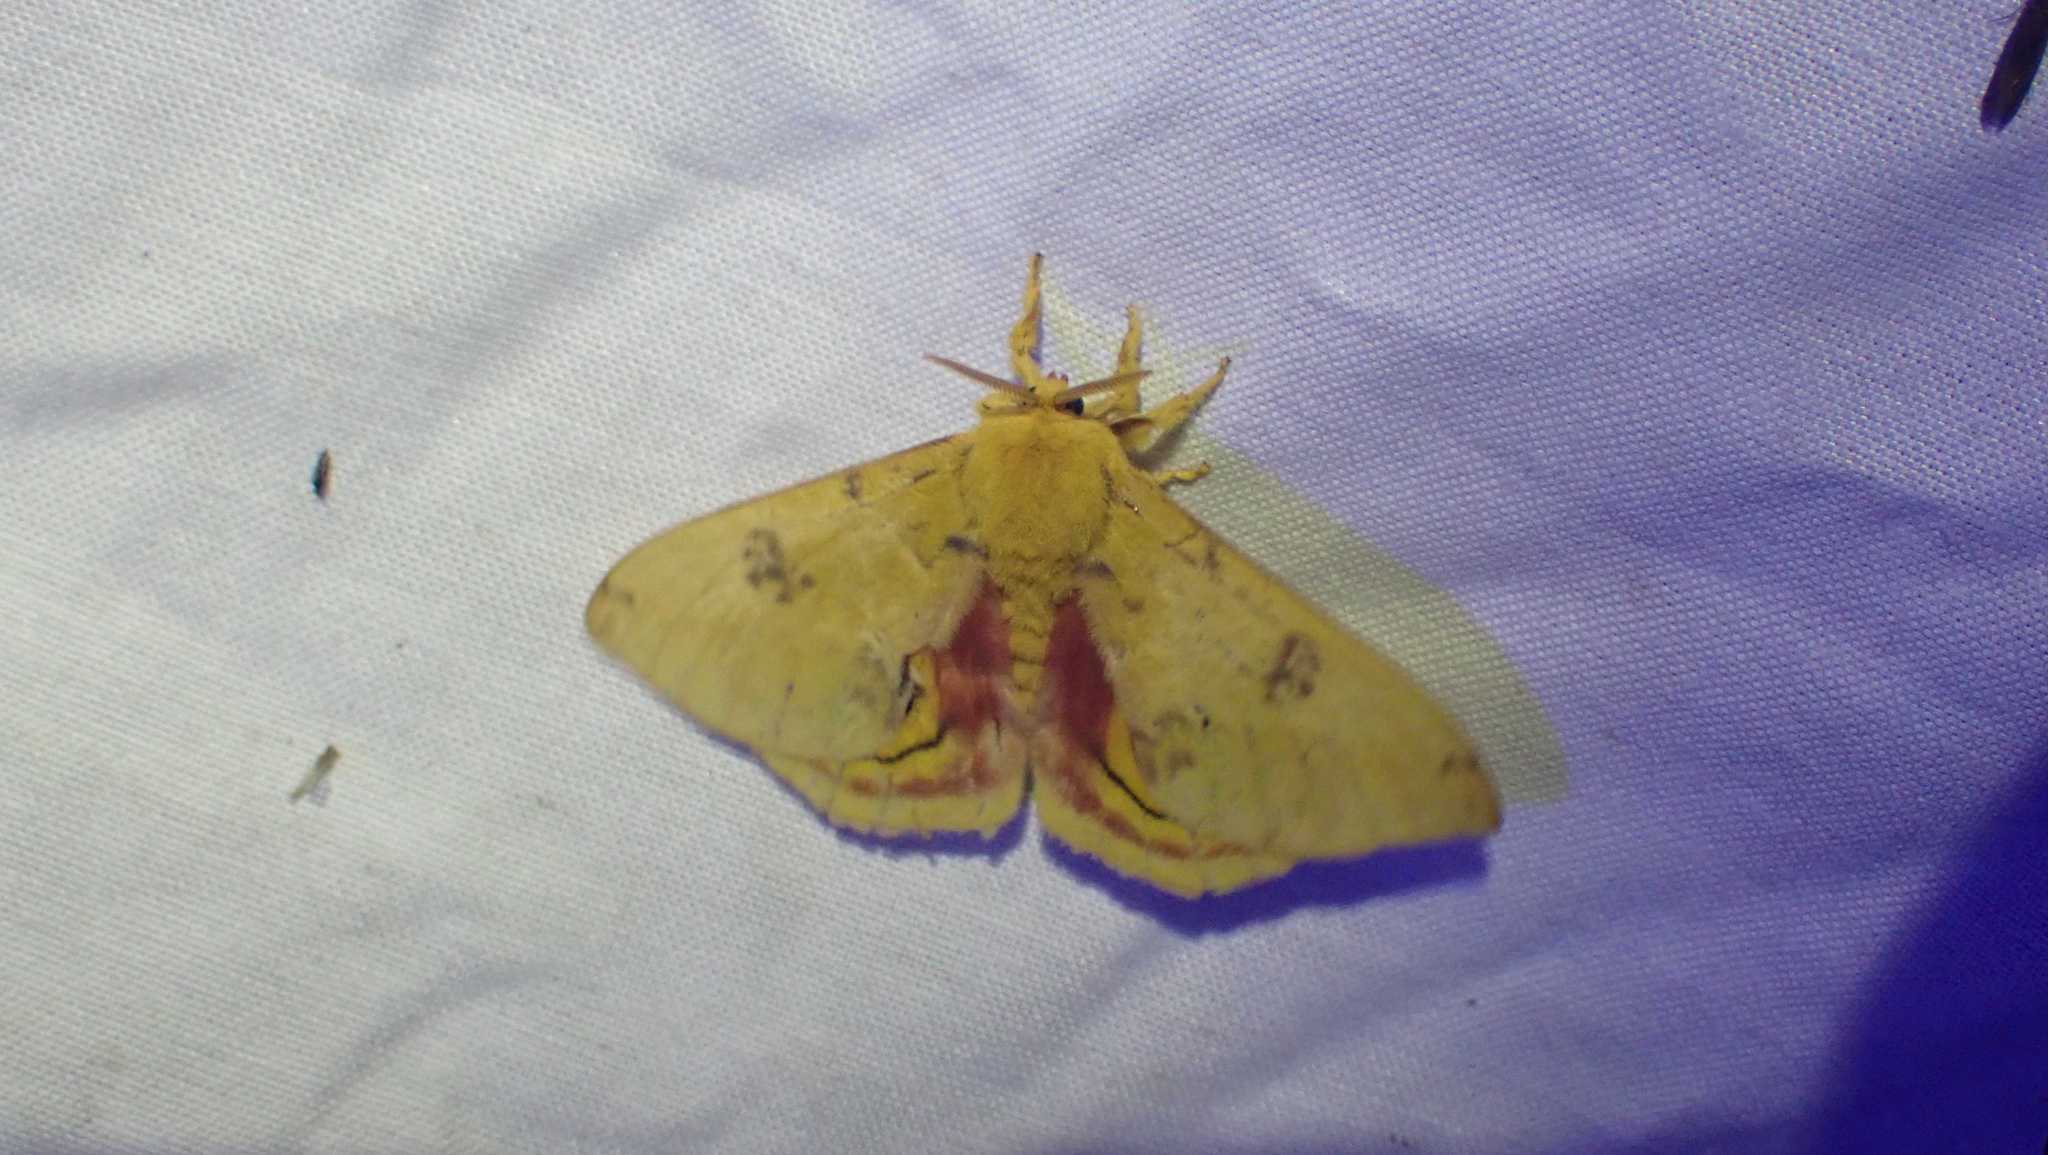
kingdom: Animalia
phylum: Arthropoda
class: Insecta
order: Lepidoptera
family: Saturniidae
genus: Automeris
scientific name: Automeris io
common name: Io moth
